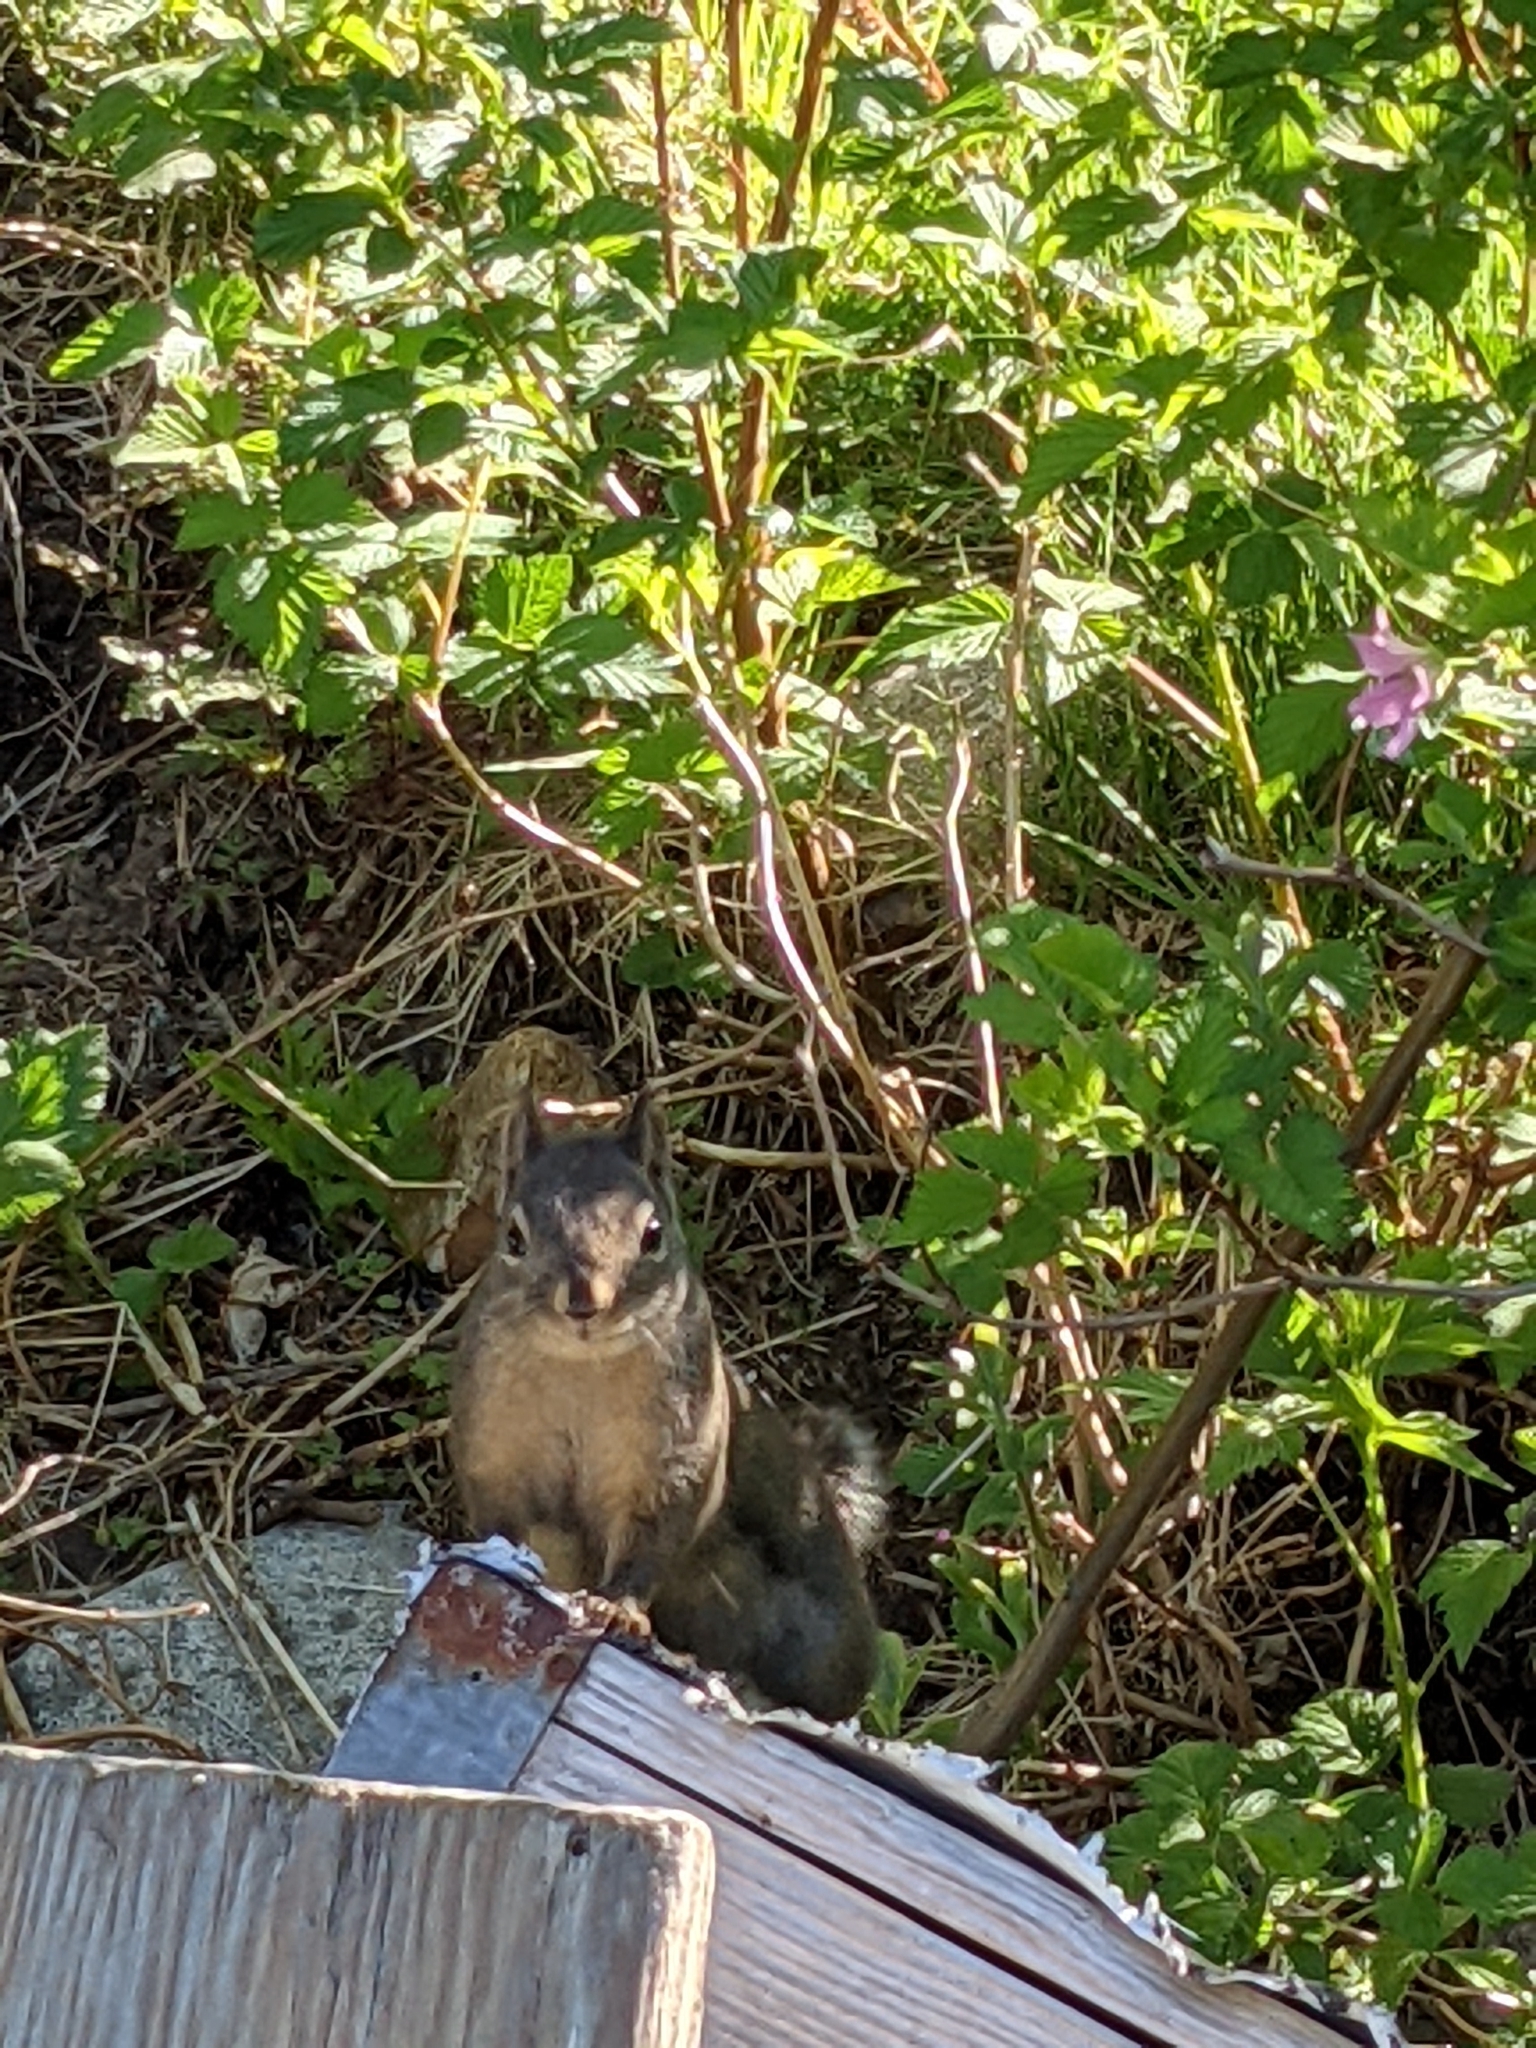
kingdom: Animalia
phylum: Chordata
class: Mammalia
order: Rodentia
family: Sciuridae
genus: Tamiasciurus
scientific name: Tamiasciurus douglasii
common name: Douglas's squirrel
